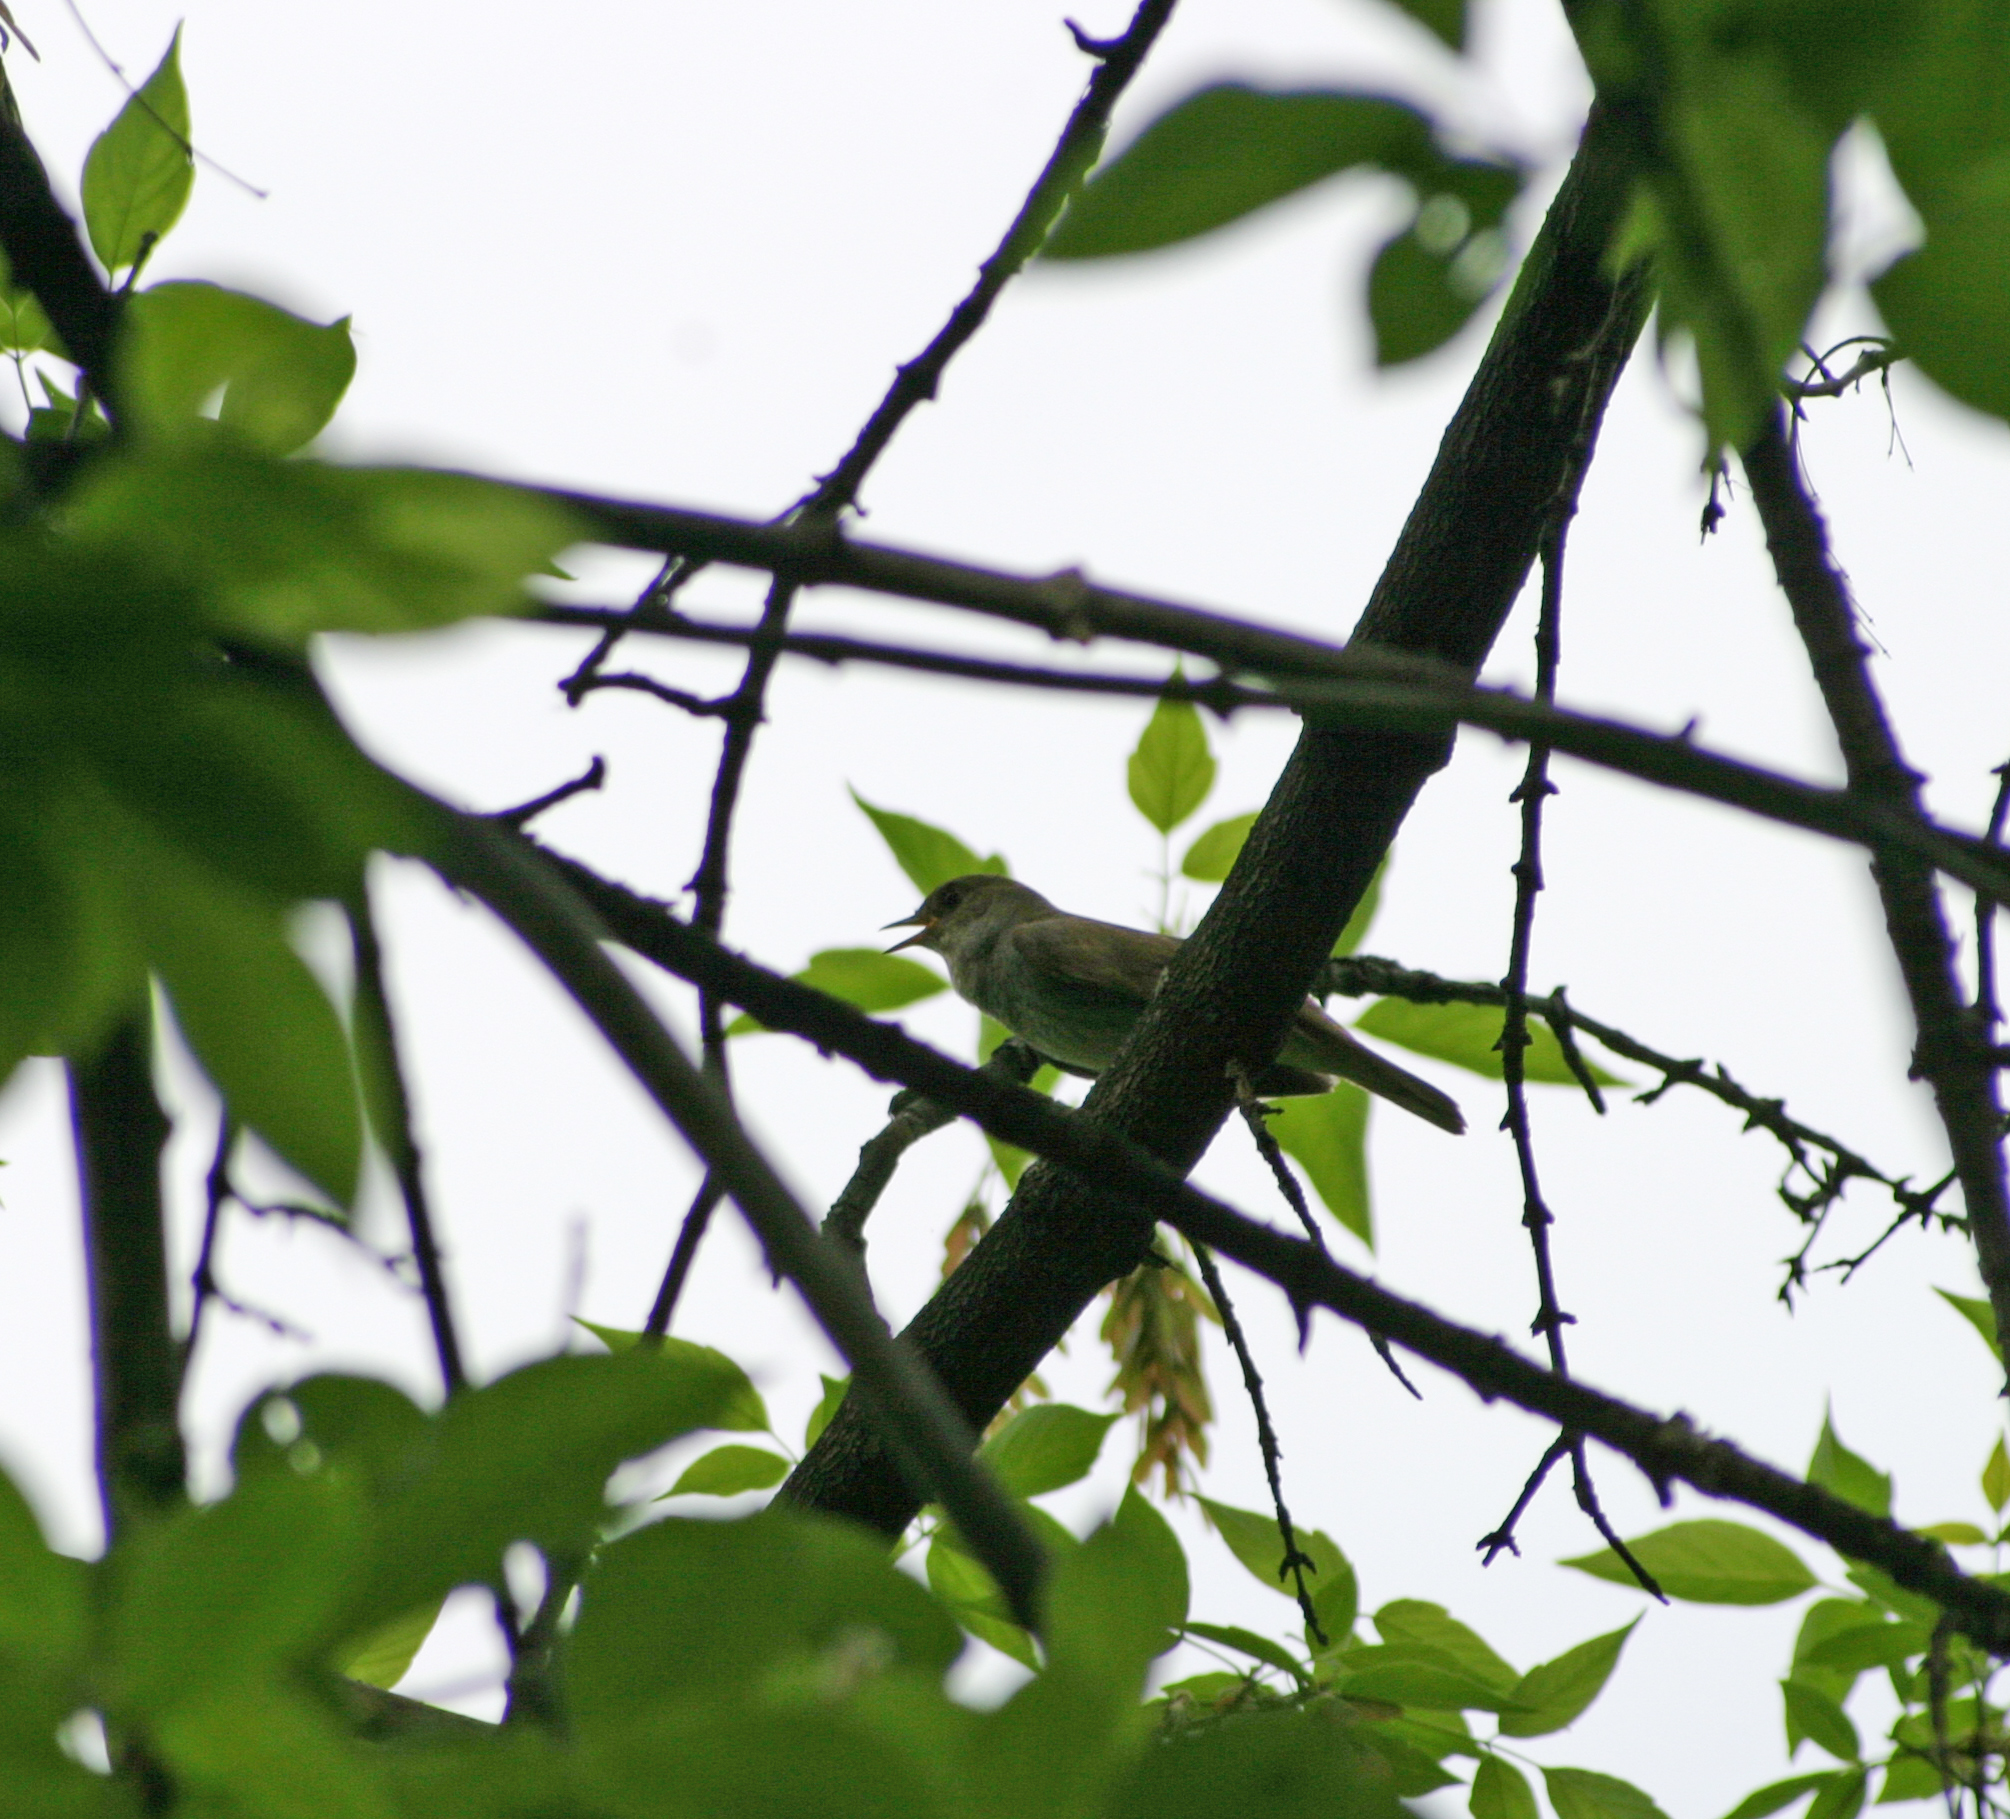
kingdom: Animalia
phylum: Chordata
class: Aves
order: Passeriformes
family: Muscicapidae
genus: Luscinia
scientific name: Luscinia luscinia
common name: Thrush nightingale
